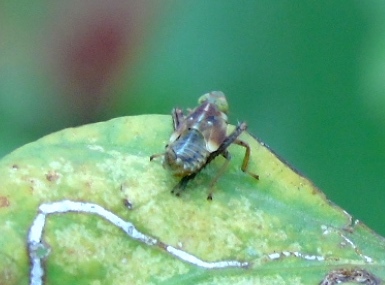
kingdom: Animalia
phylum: Arthropoda
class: Insecta
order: Hemiptera
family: Cicadellidae
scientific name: Cicadellidae
